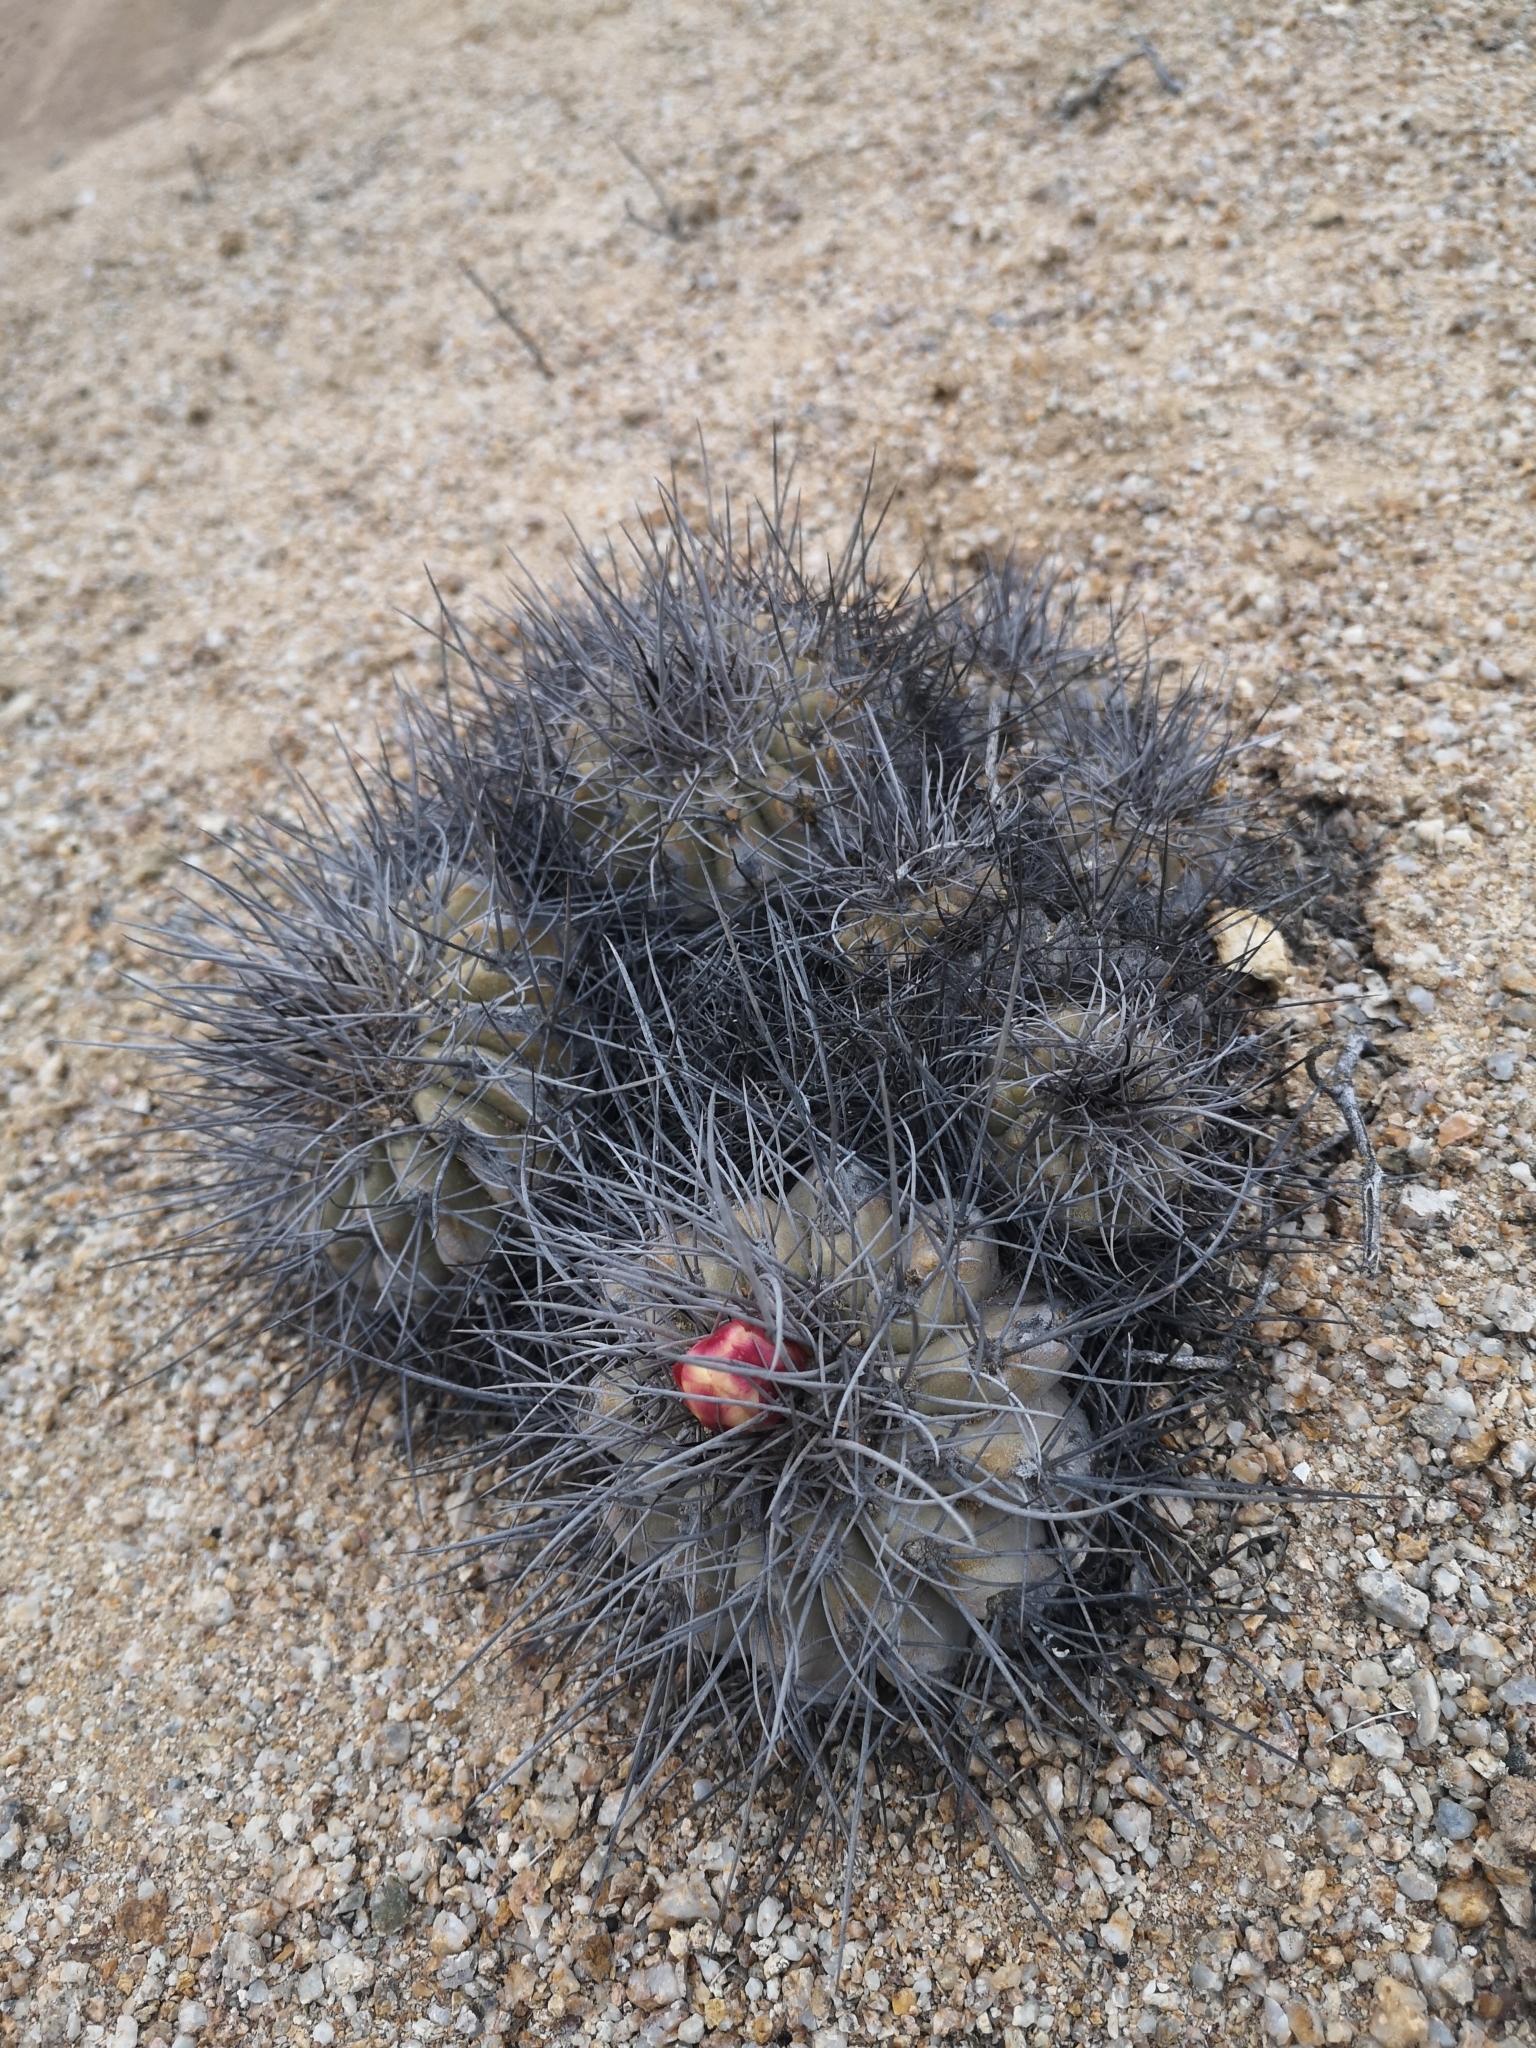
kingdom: Plantae
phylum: Tracheophyta
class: Magnoliopsida
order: Caryophyllales
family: Cactaceae
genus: Copiapoa
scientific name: Copiapoa grandiflora
